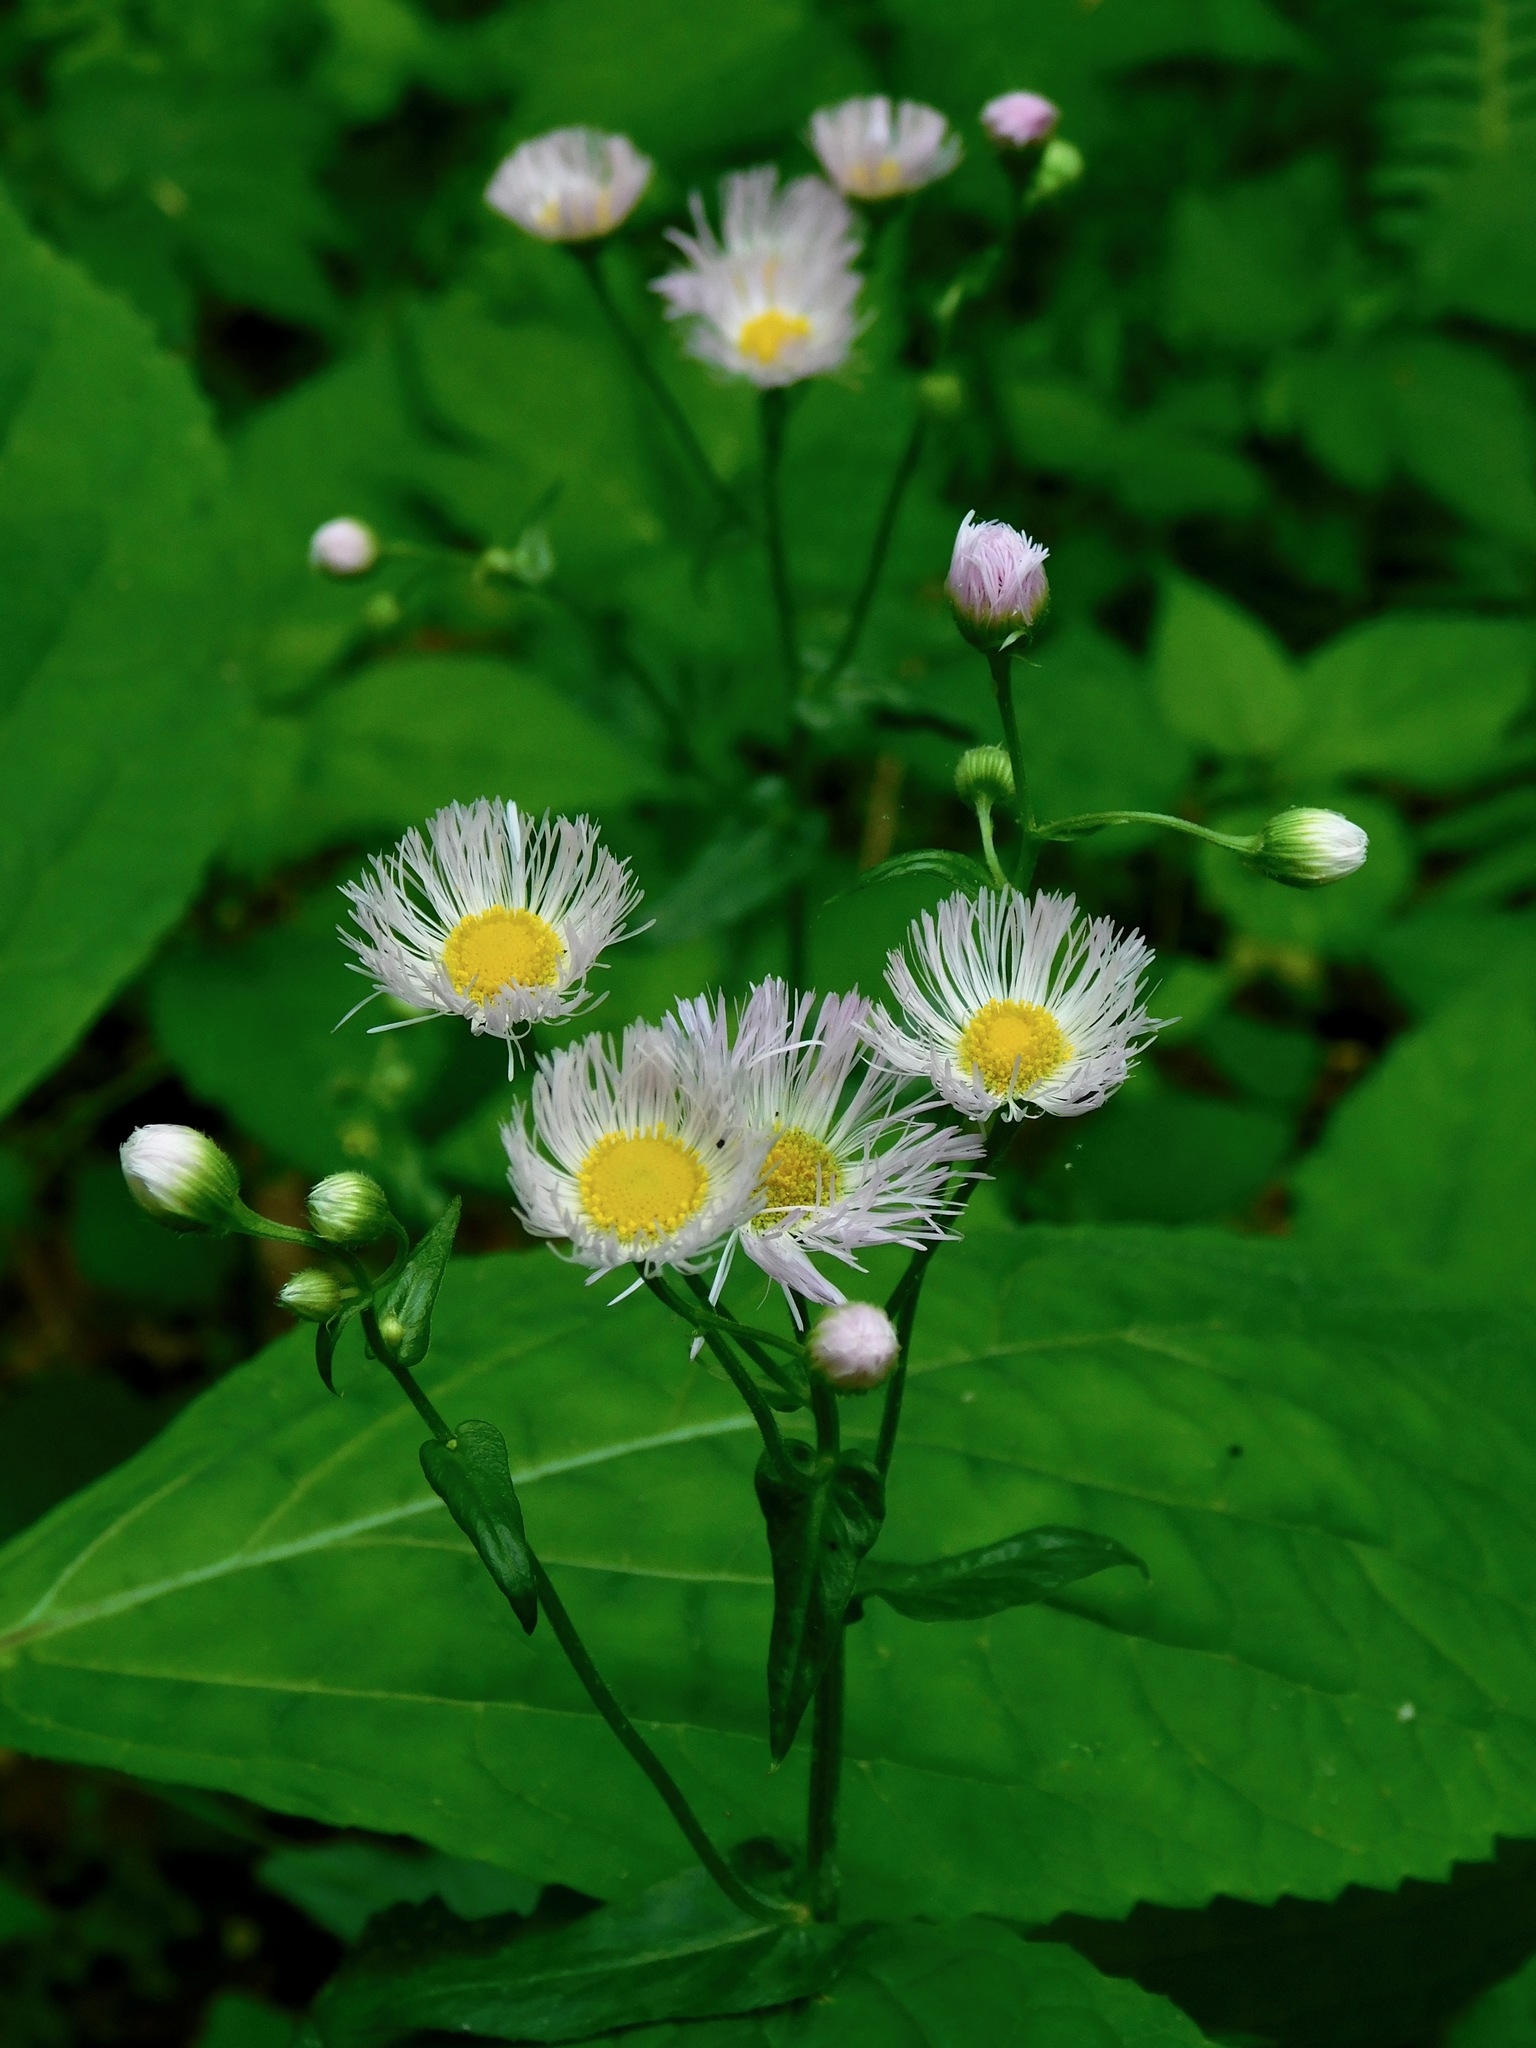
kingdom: Plantae
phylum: Tracheophyta
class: Magnoliopsida
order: Asterales
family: Asteraceae
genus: Erigeron
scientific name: Erigeron philadelphicus
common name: Robin's-plantain
